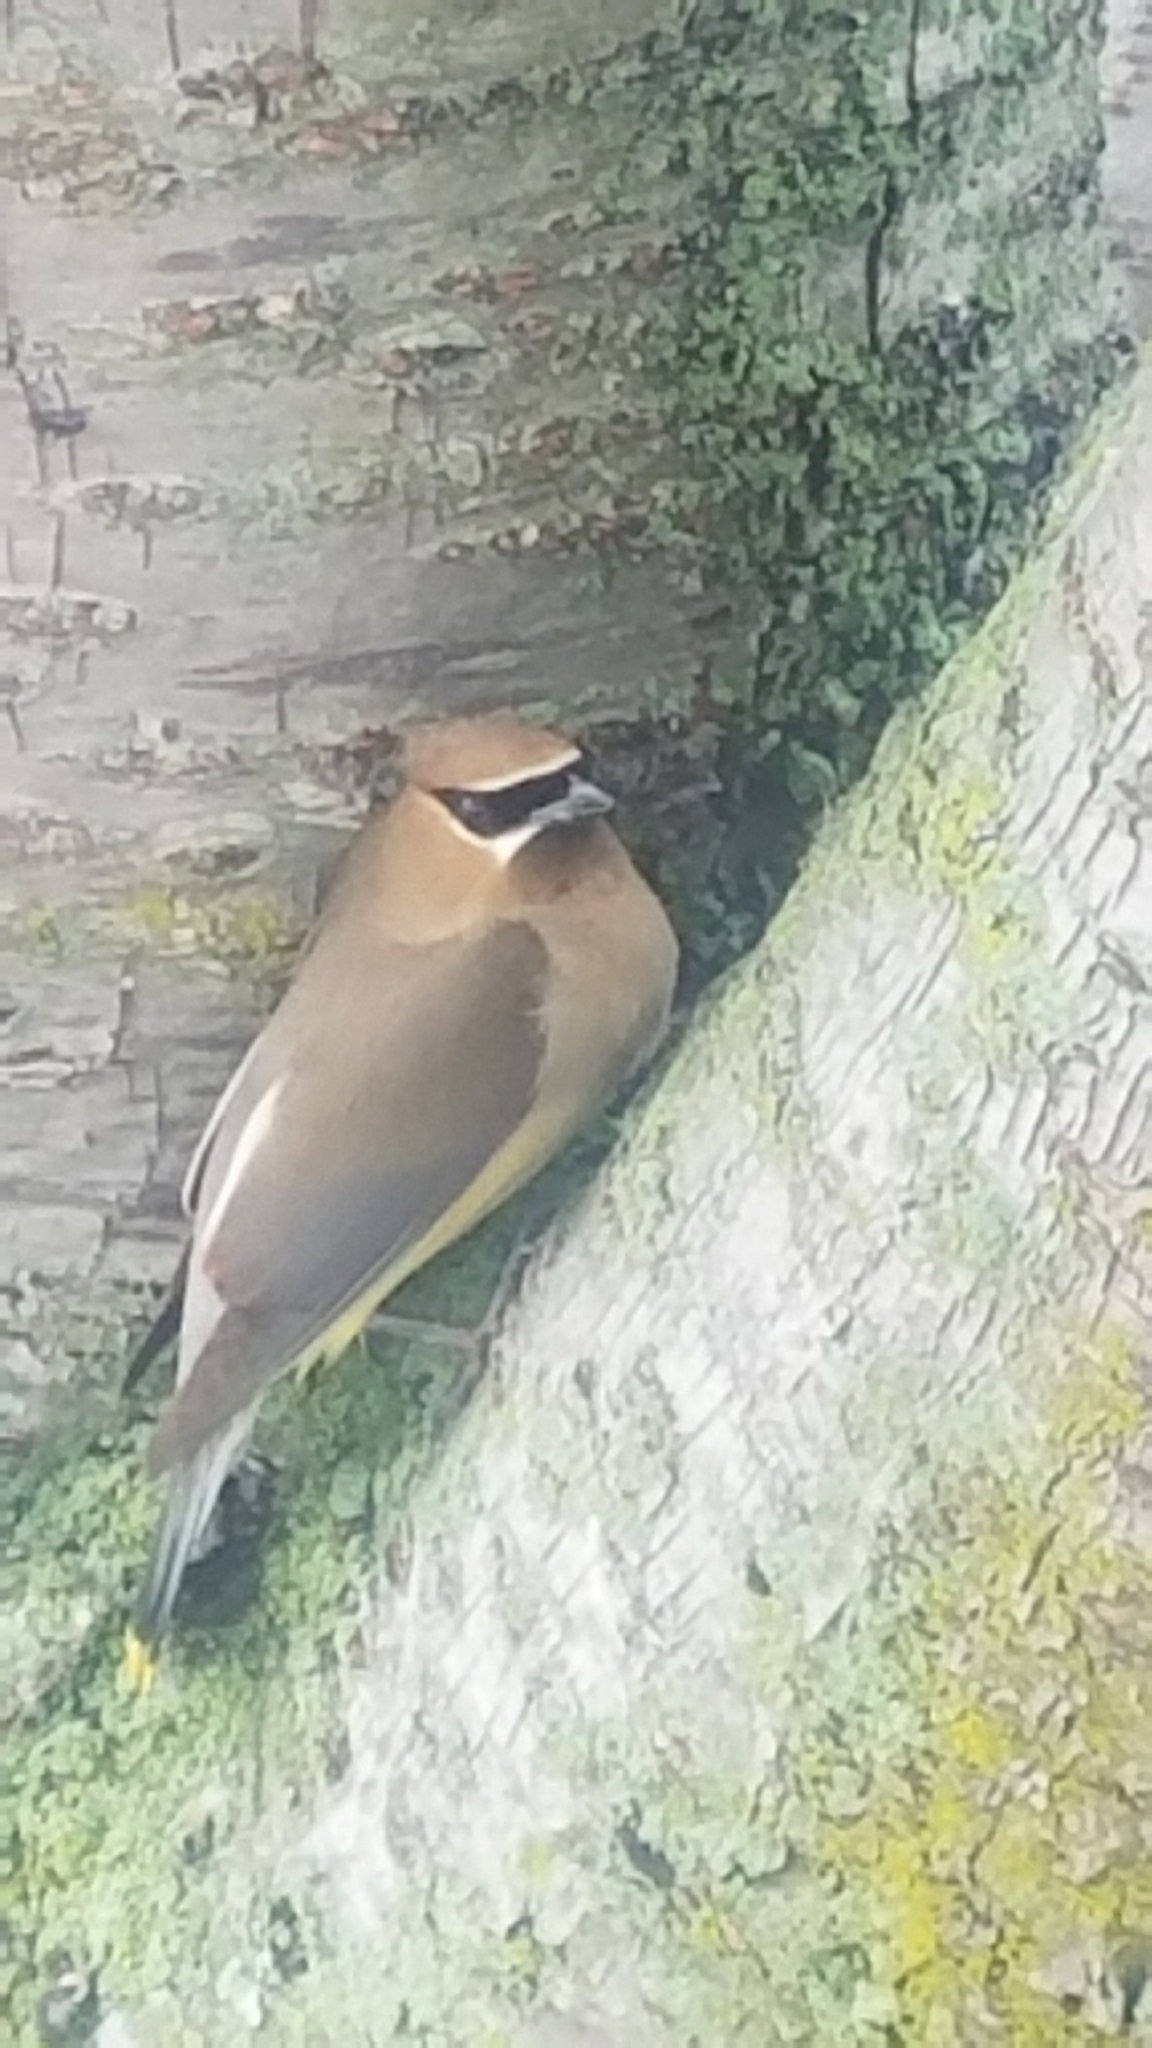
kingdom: Animalia
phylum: Chordata
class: Aves
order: Passeriformes
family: Bombycillidae
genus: Bombycilla
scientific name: Bombycilla cedrorum
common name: Cedar waxwing
